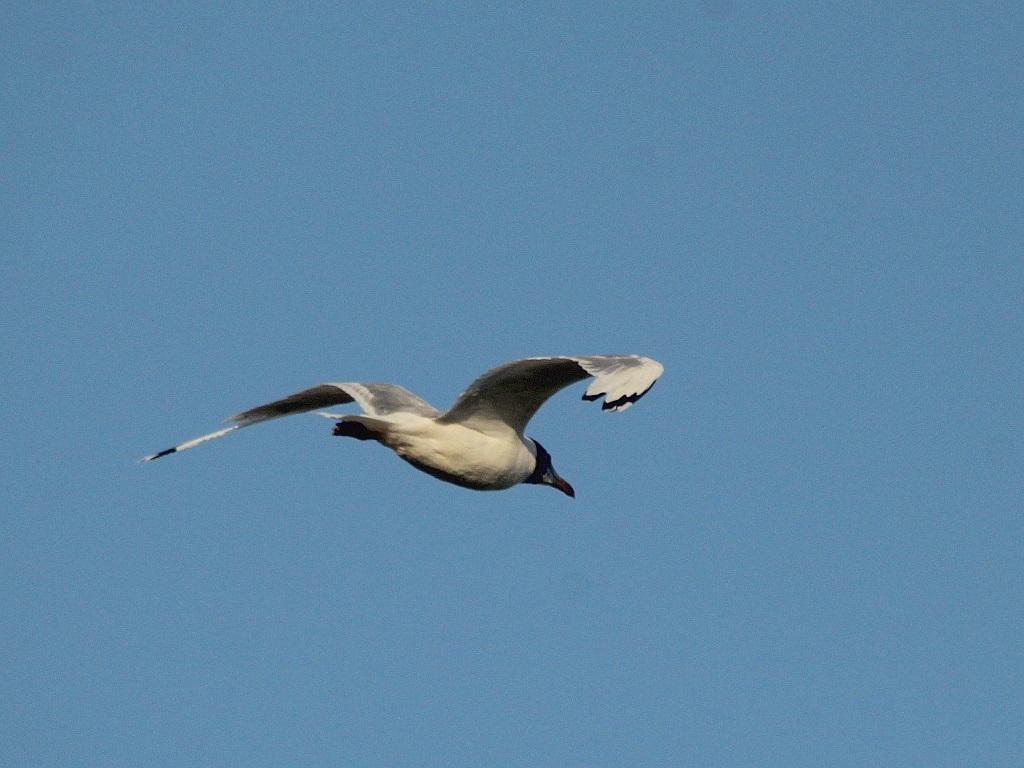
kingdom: Animalia
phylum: Chordata
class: Aves
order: Charadriiformes
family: Laridae
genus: Ichthyaetus
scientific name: Ichthyaetus ichthyaetus
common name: Pallas's gull
